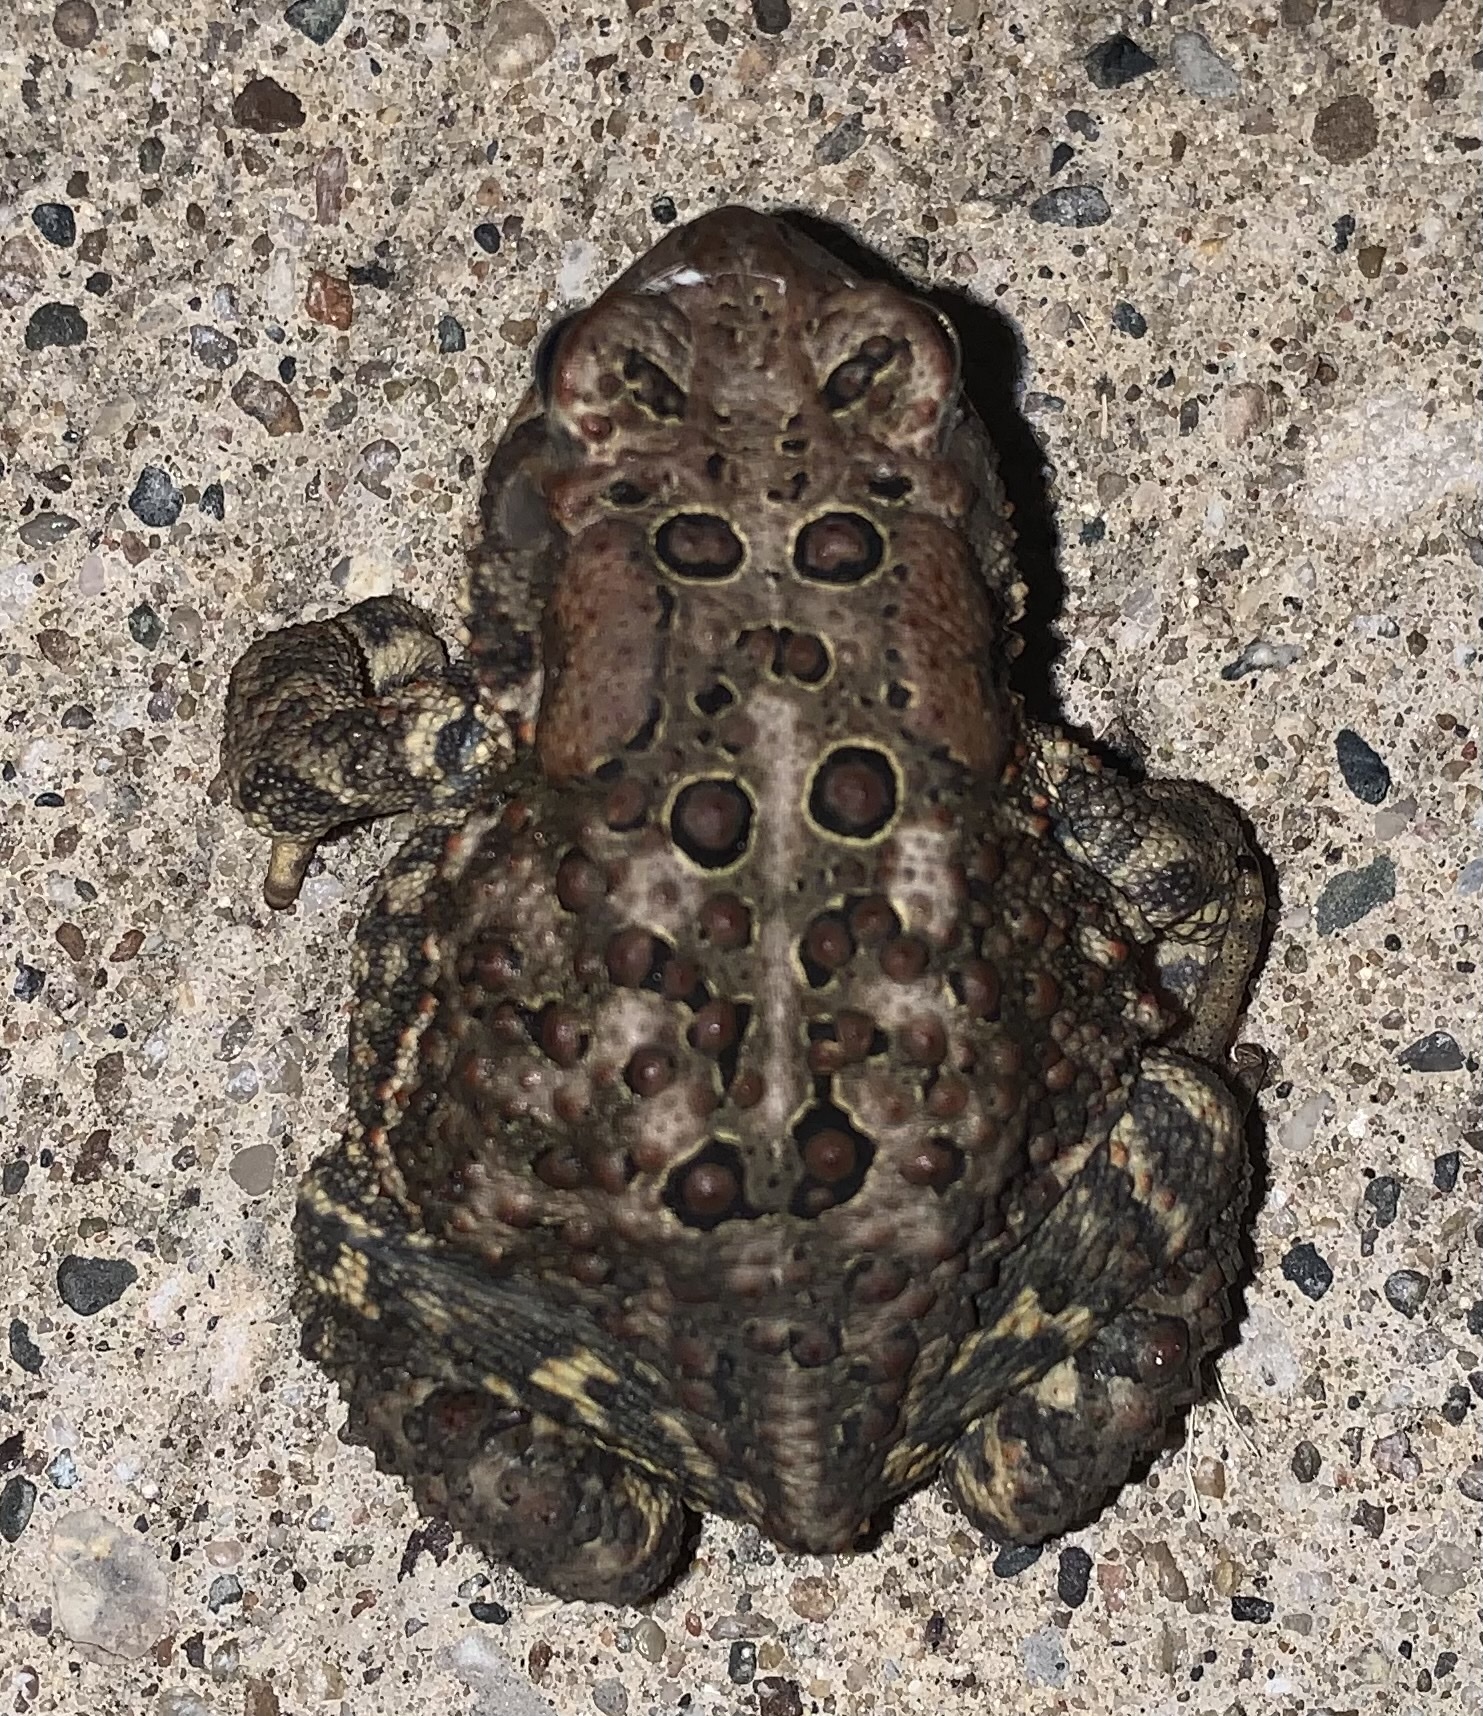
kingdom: Animalia
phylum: Chordata
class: Amphibia
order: Anura
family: Bufonidae
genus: Anaxyrus
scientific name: Anaxyrus americanus
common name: American toad
